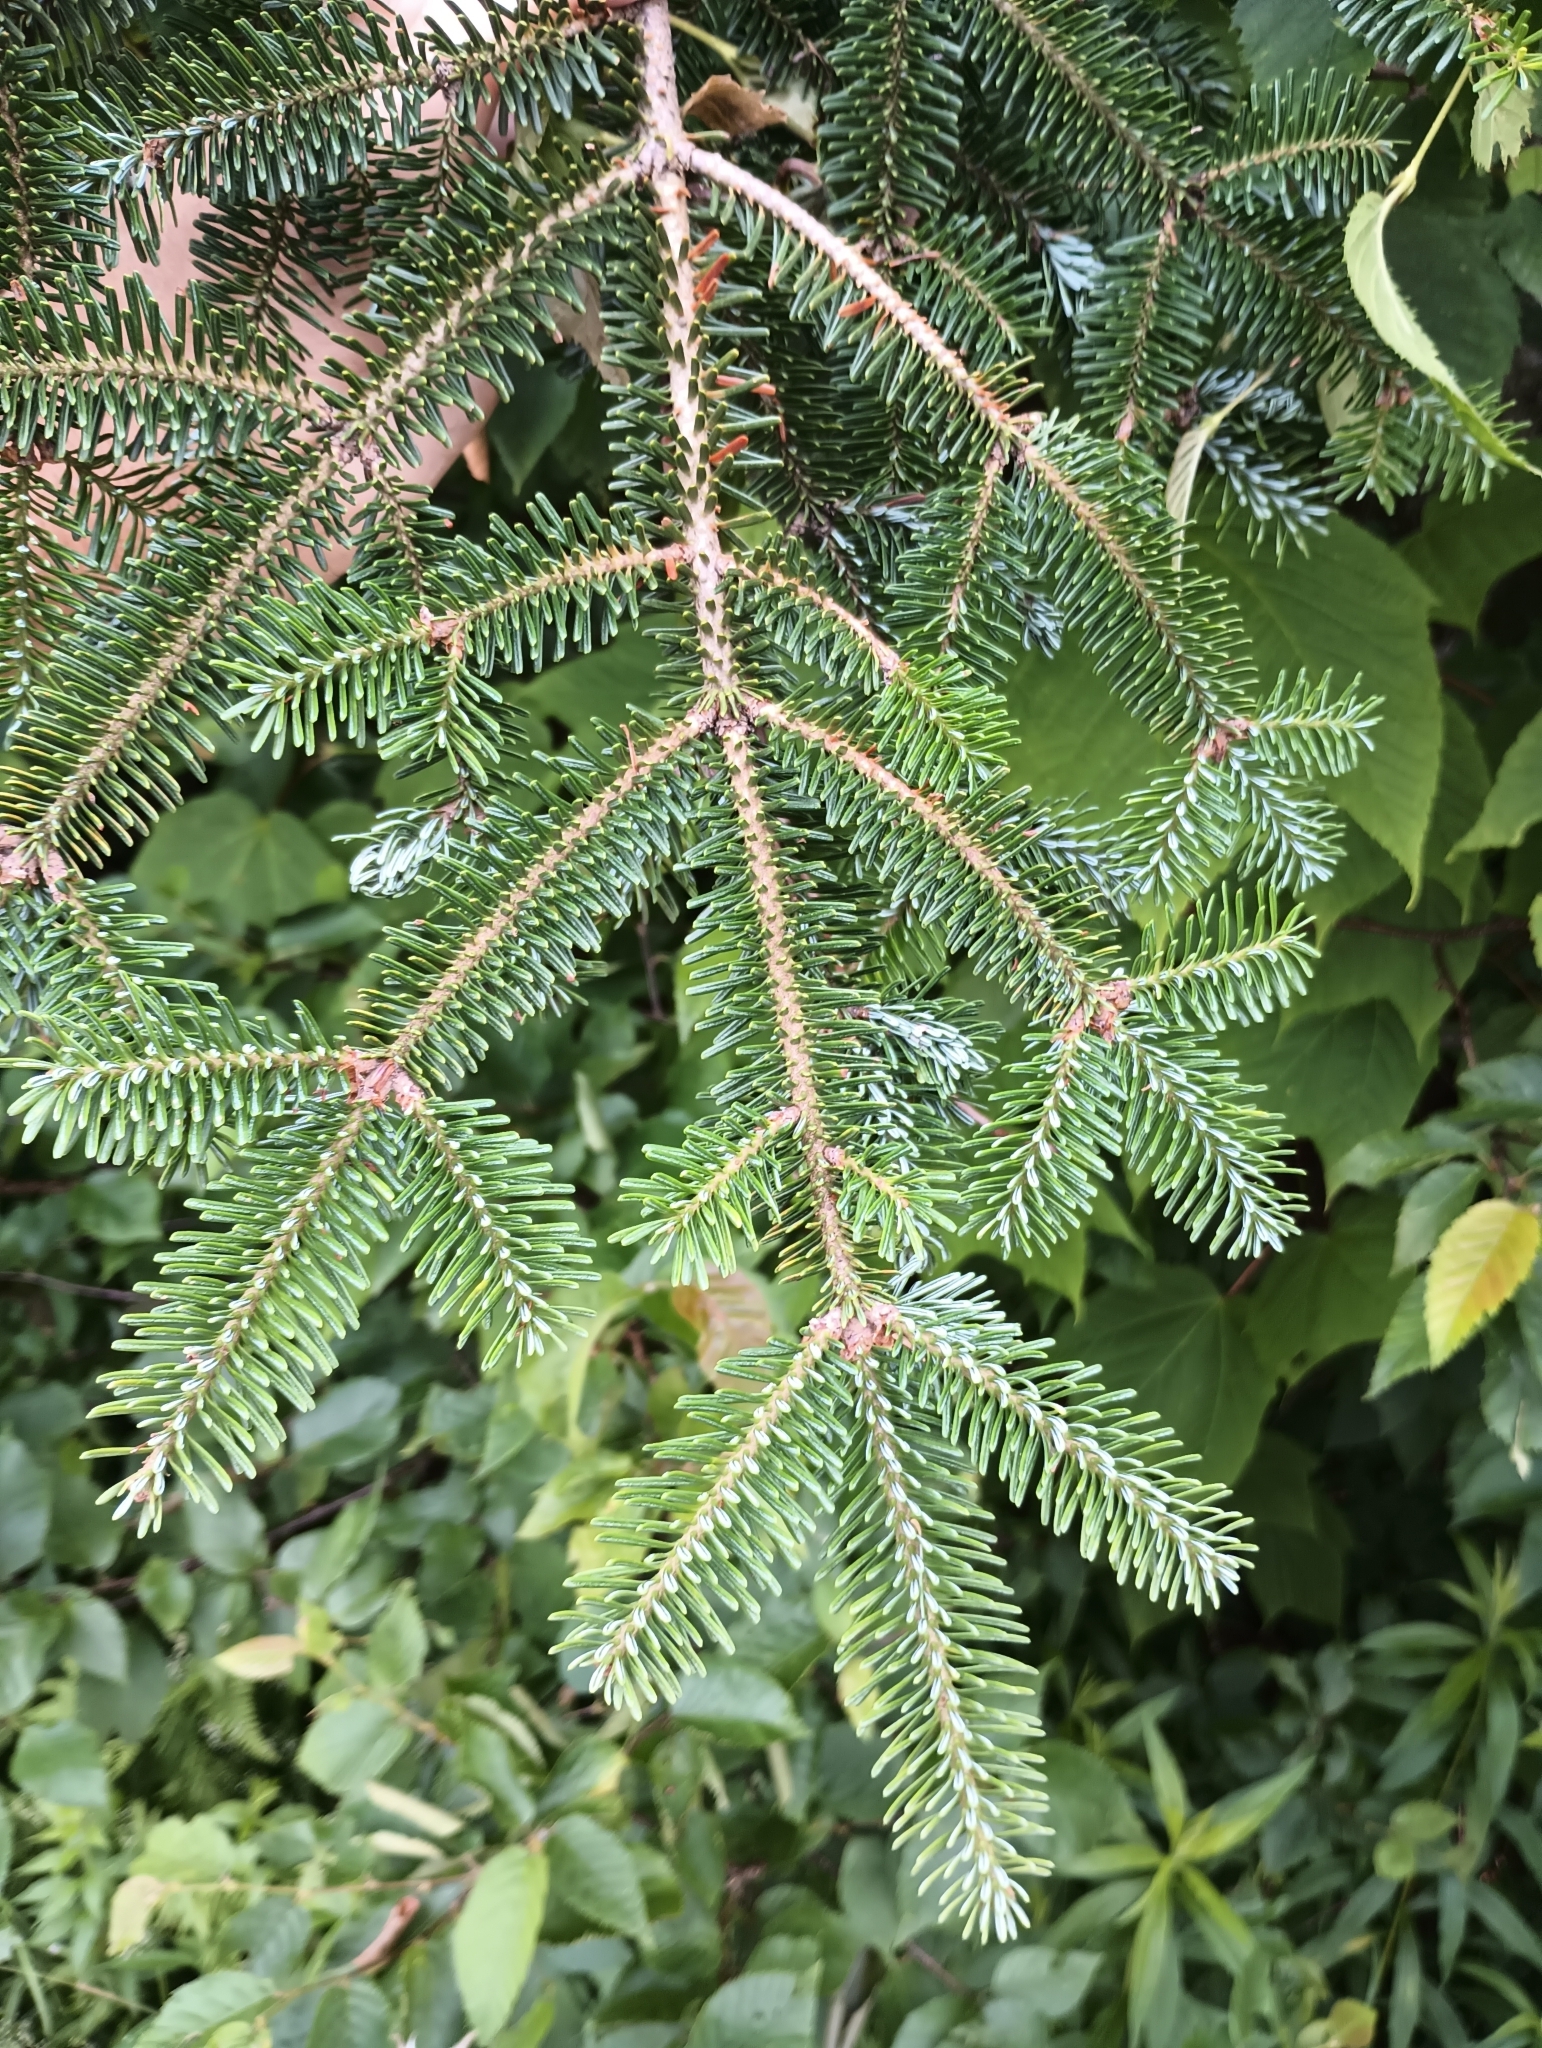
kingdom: Plantae
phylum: Tracheophyta
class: Pinopsida
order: Pinales
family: Pinaceae
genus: Abies
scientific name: Abies balsamea
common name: Balsam fir
